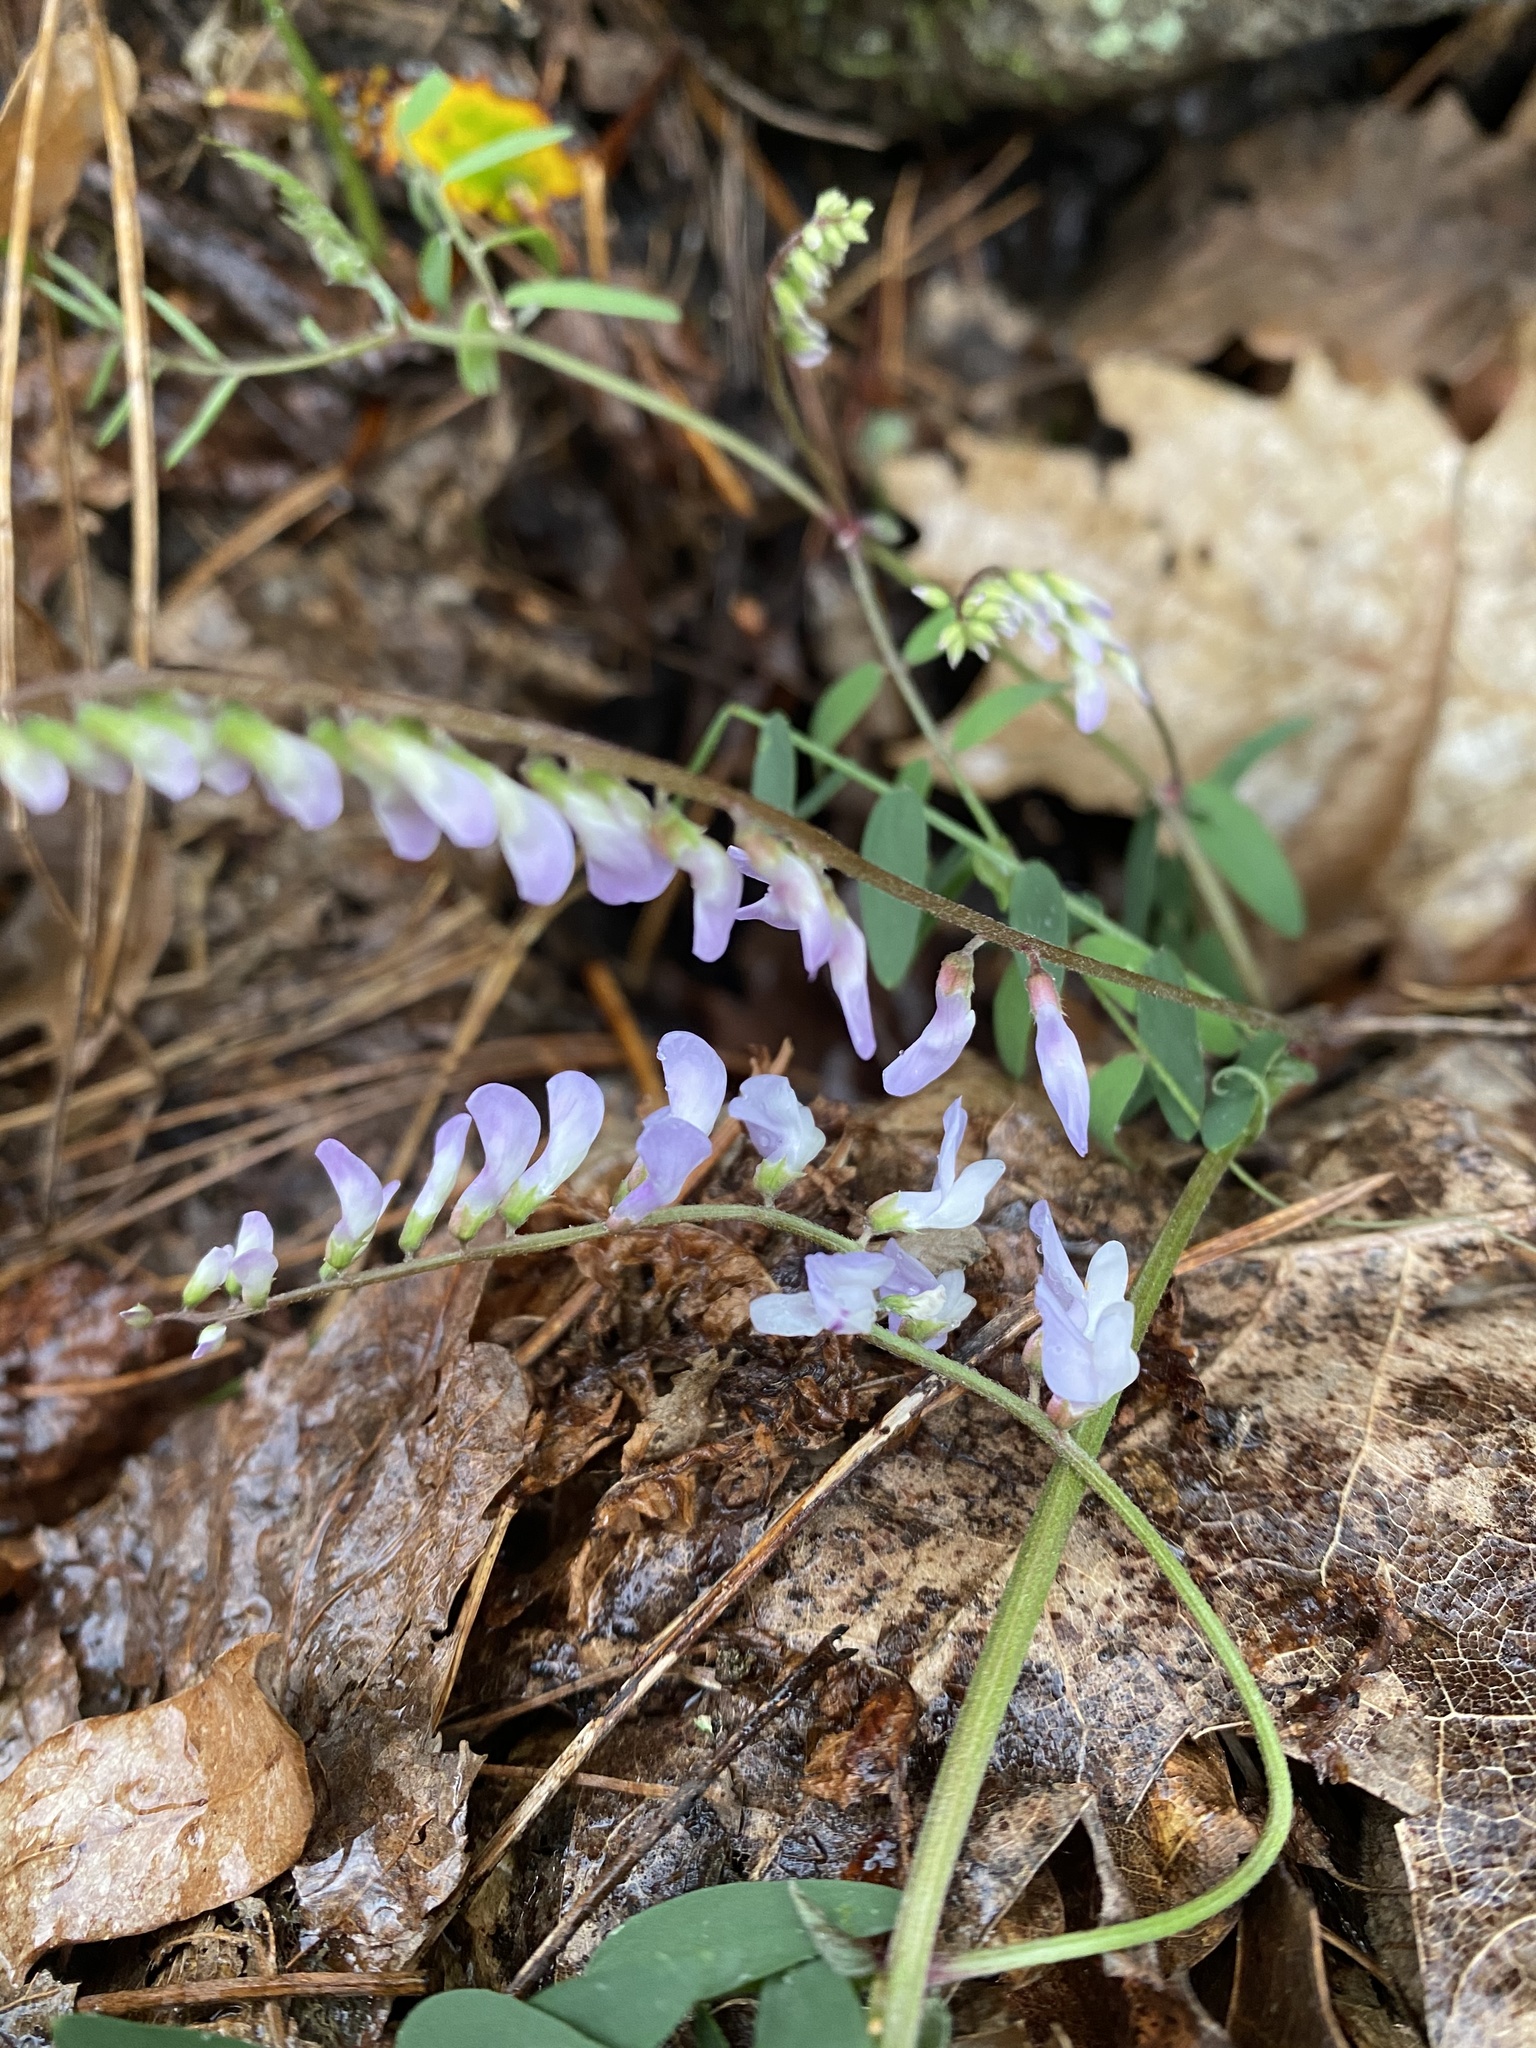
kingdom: Plantae
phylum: Tracheophyta
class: Magnoliopsida
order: Fabales
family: Fabaceae
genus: Vicia
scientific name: Vicia caroliniana
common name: Carolina vetch
